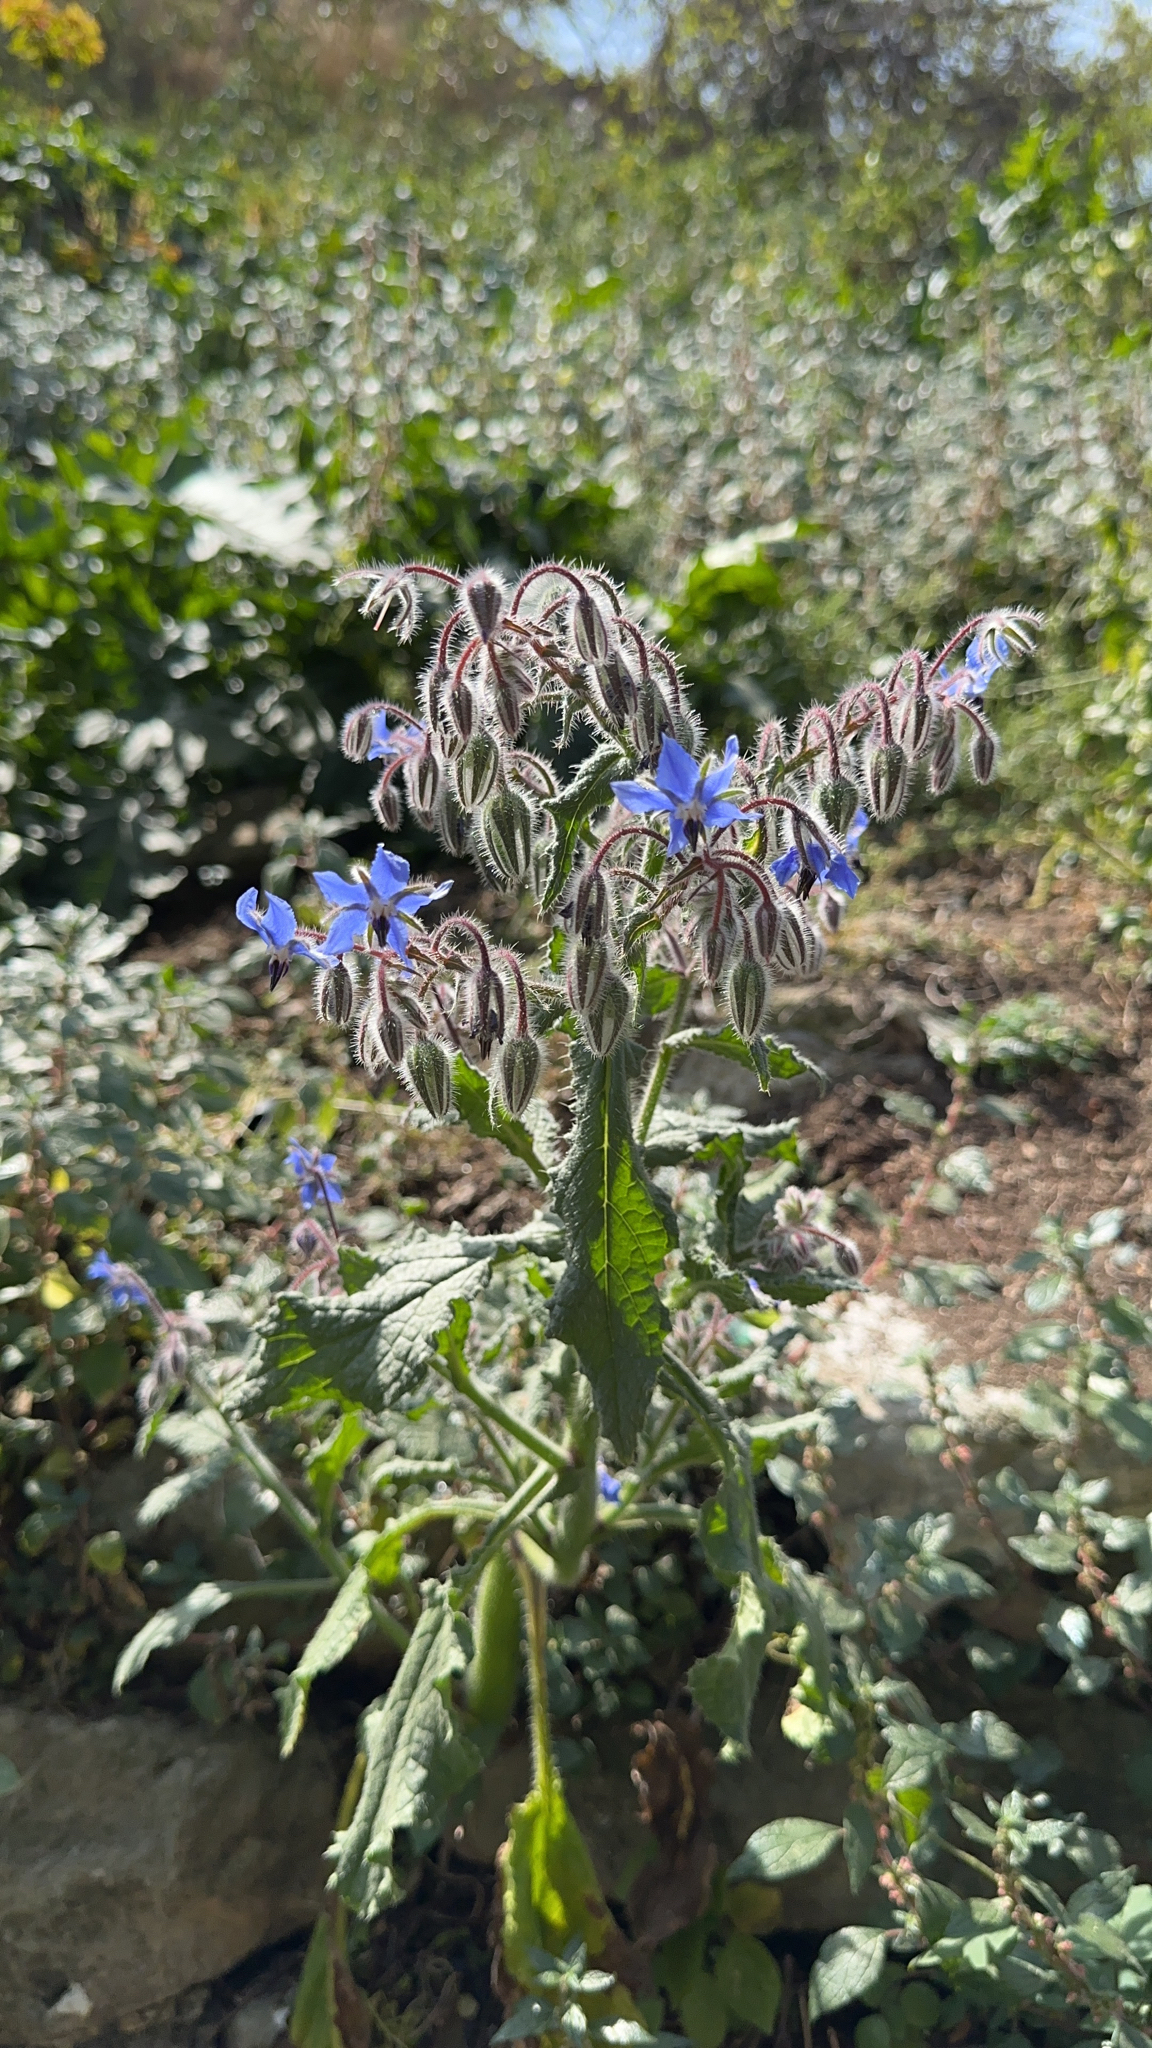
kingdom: Plantae
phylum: Tracheophyta
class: Magnoliopsida
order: Boraginales
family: Boraginaceae
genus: Borago
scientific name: Borago officinalis
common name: Borage
